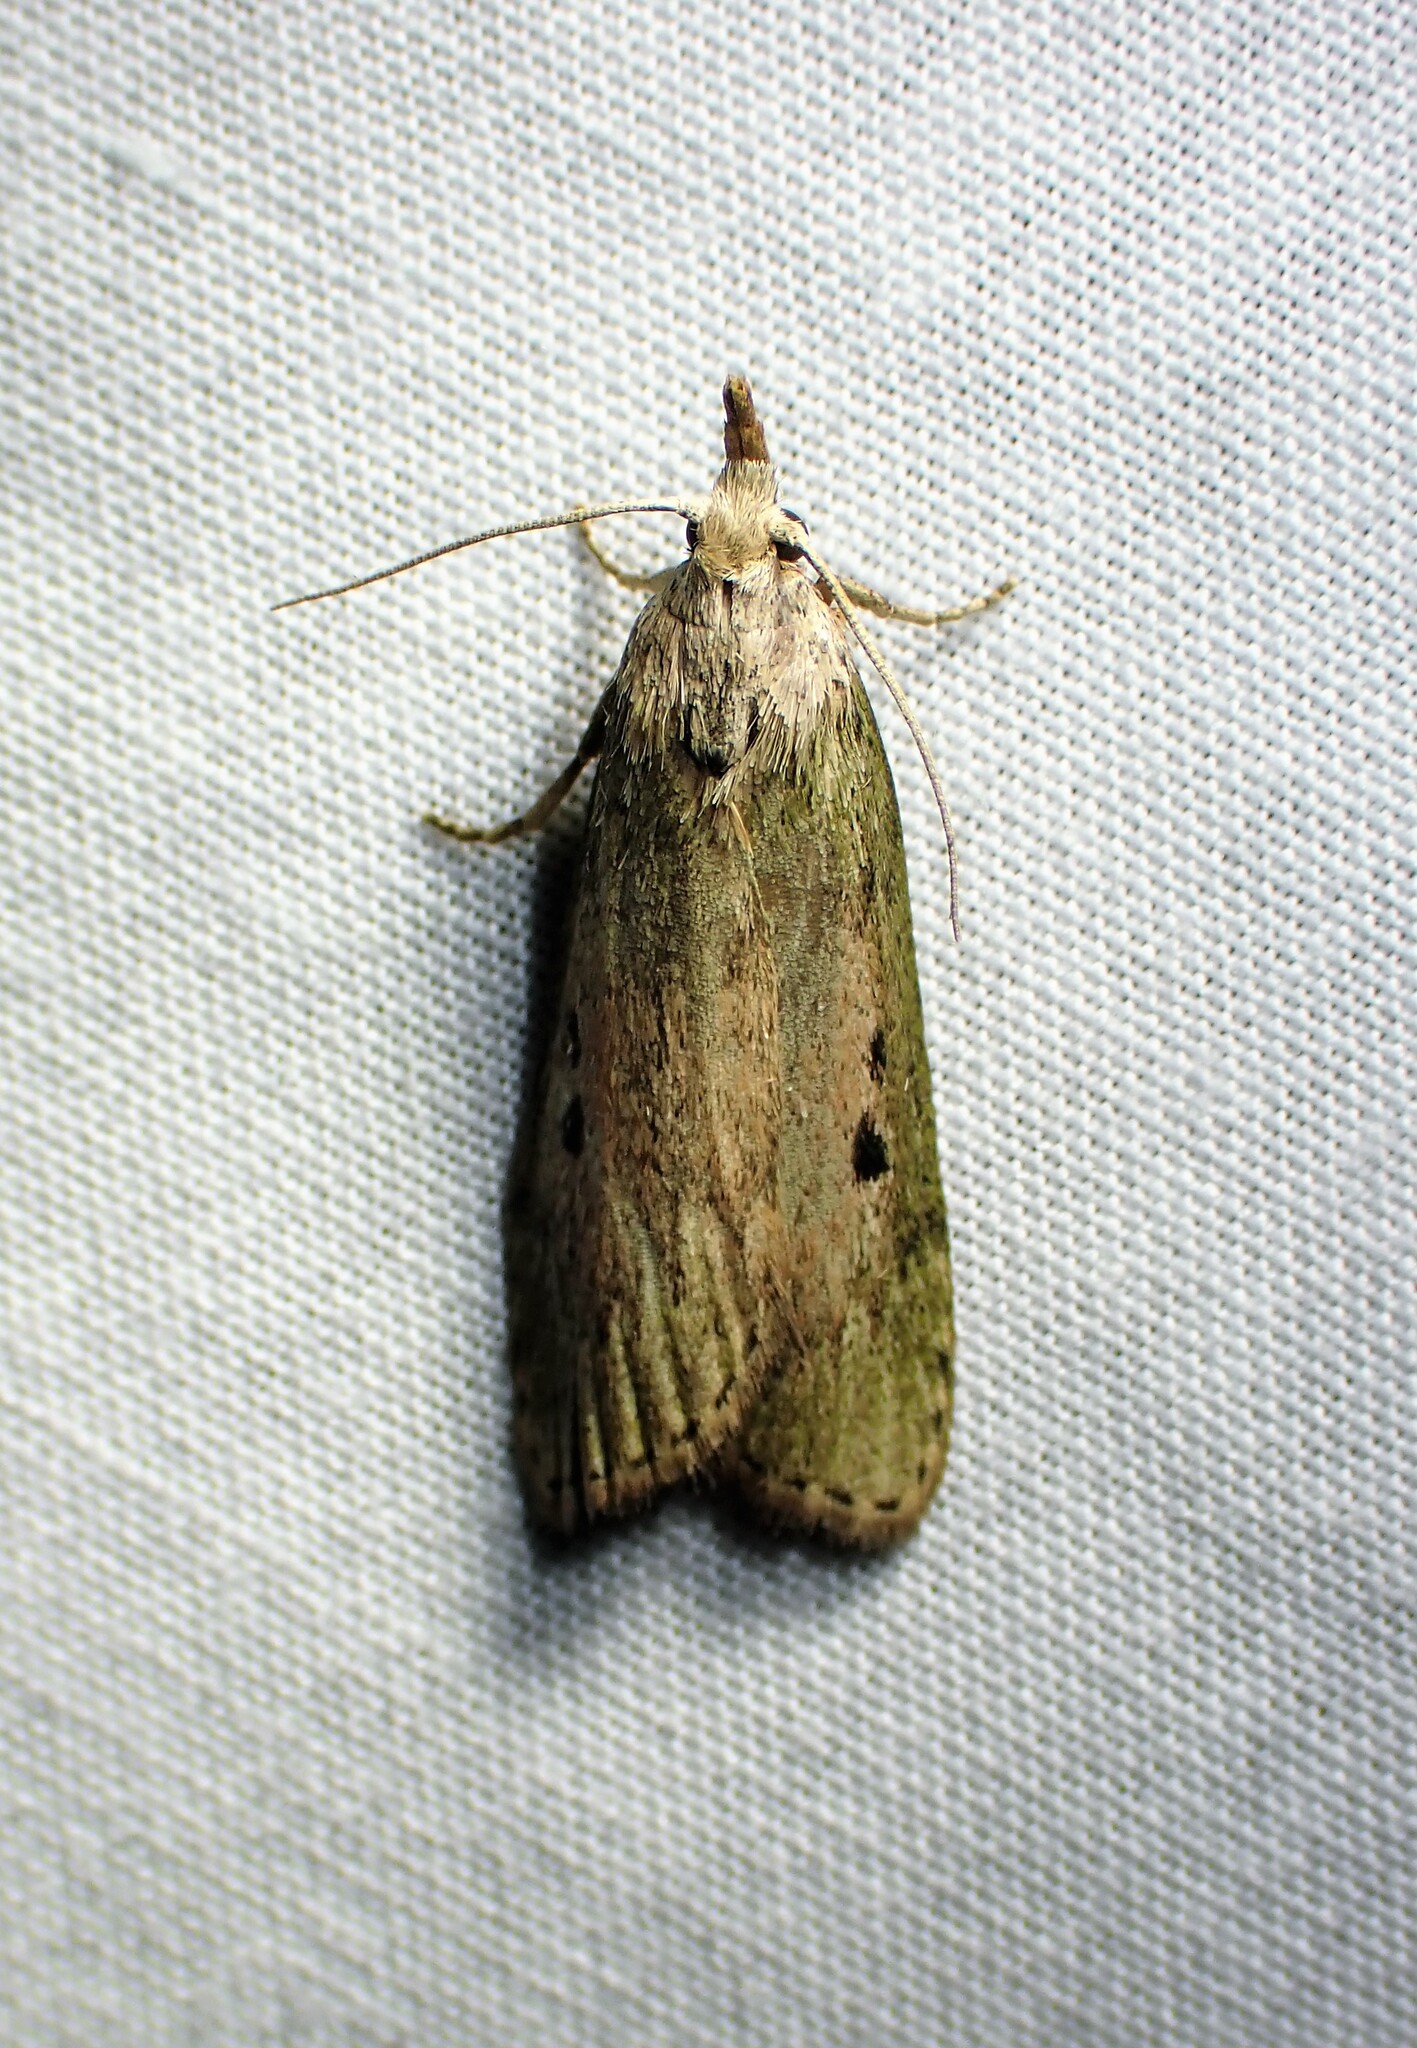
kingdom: Animalia
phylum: Arthropoda
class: Insecta
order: Lepidoptera
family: Pyralidae
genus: Aphomia
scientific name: Aphomia sociella
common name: Bee moth
